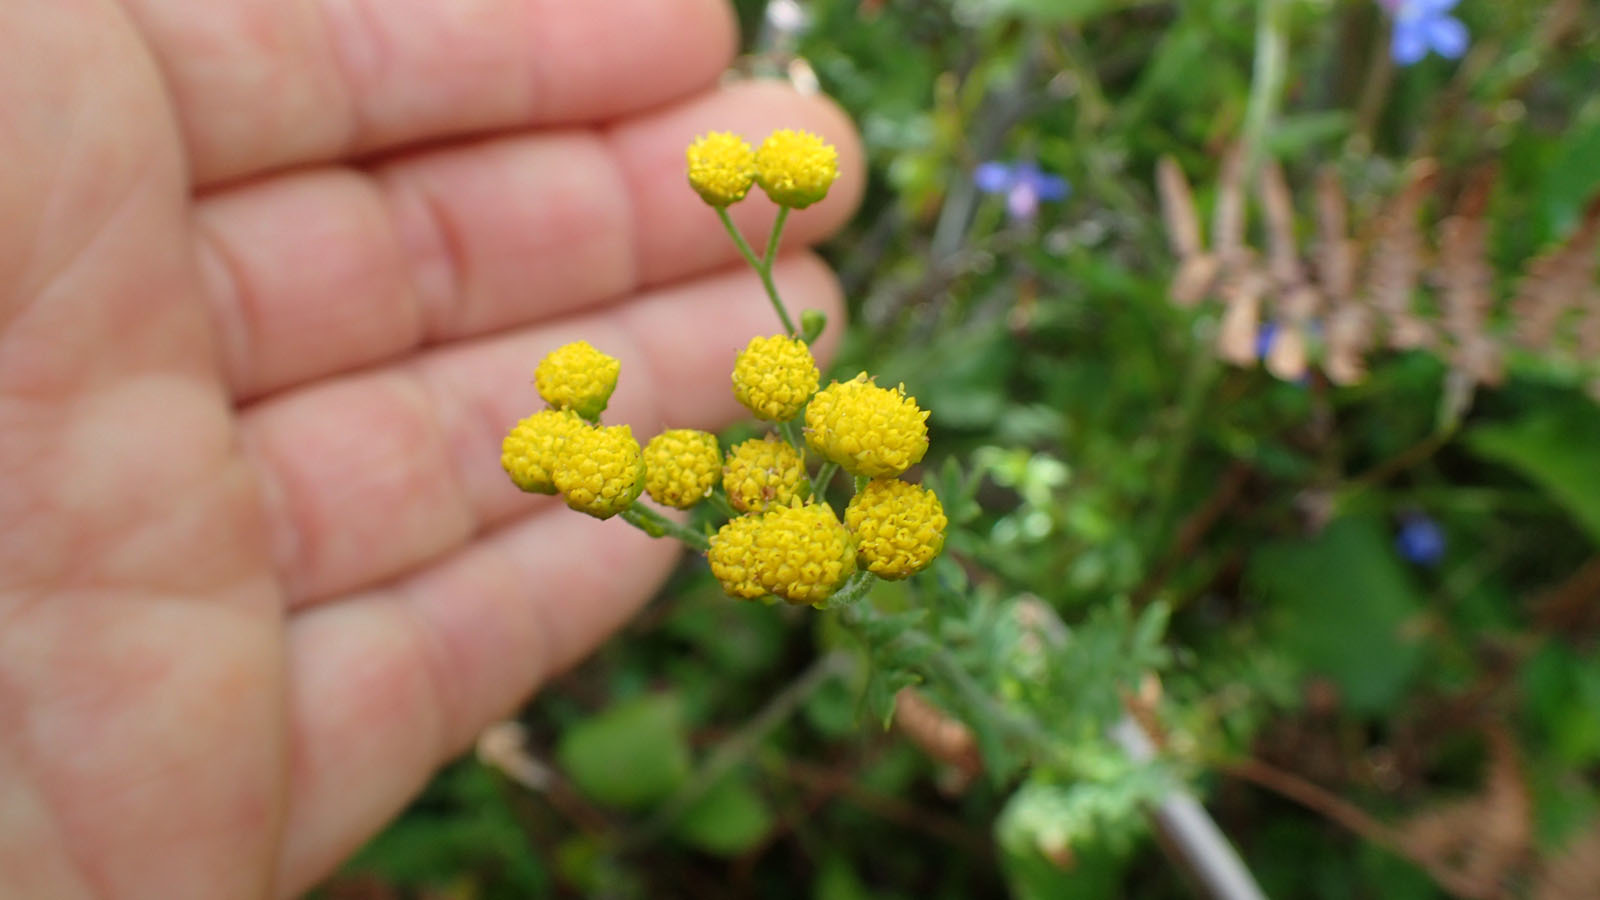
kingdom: Plantae
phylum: Tracheophyta
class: Magnoliopsida
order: Asterales
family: Asteraceae
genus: Hippia
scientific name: Hippia frutescens
